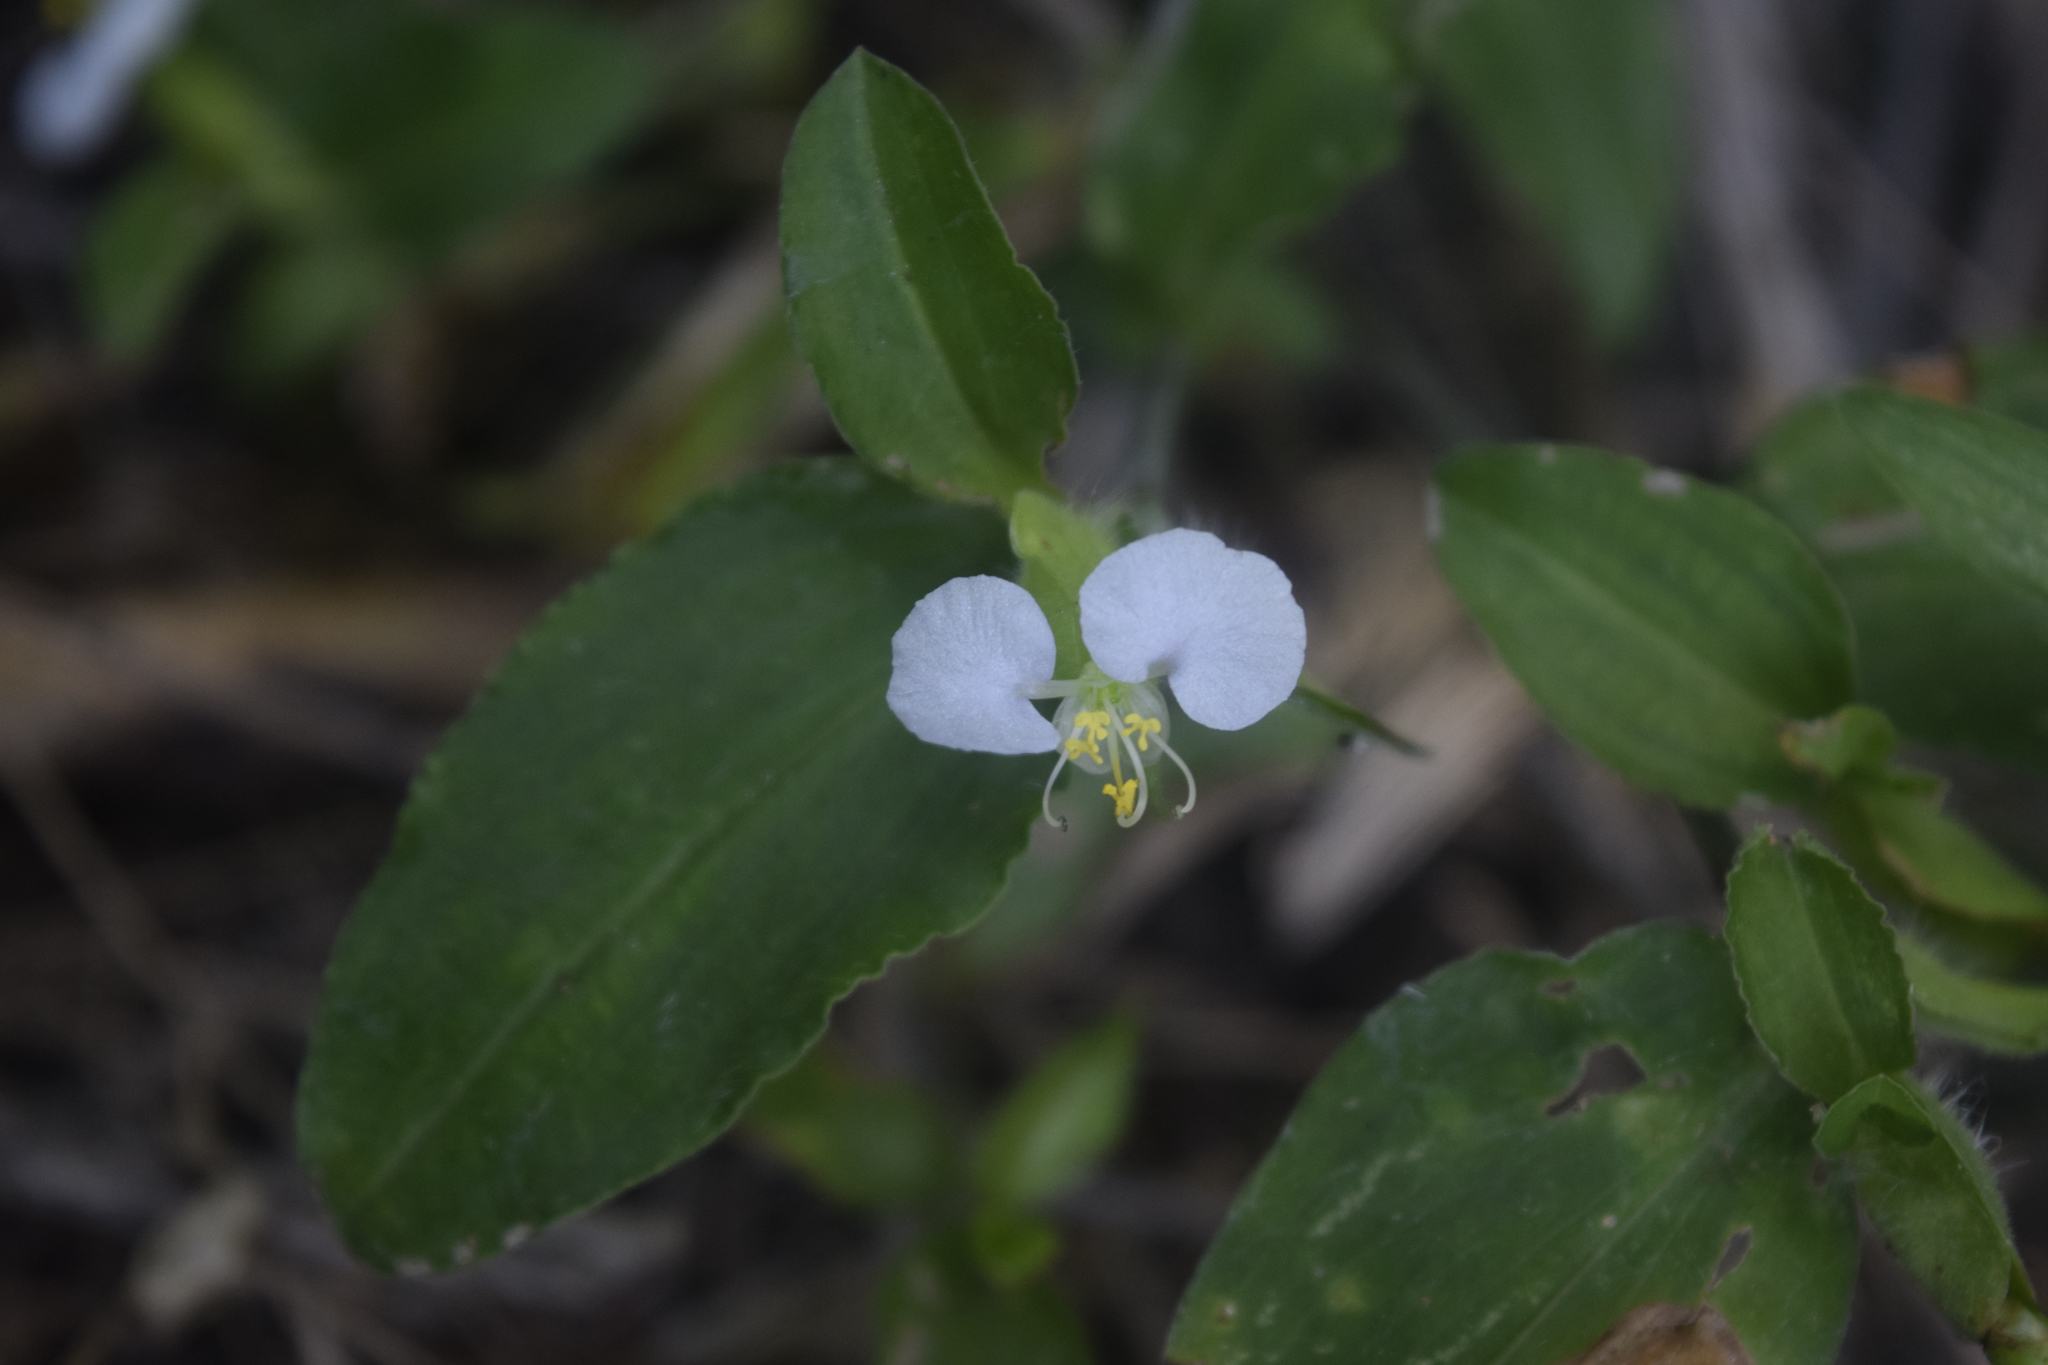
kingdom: Plantae
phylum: Tracheophyta
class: Liliopsida
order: Commelinales
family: Commelinaceae
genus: Commelina
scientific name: Commelina erecta
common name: Blousel blommetjie
